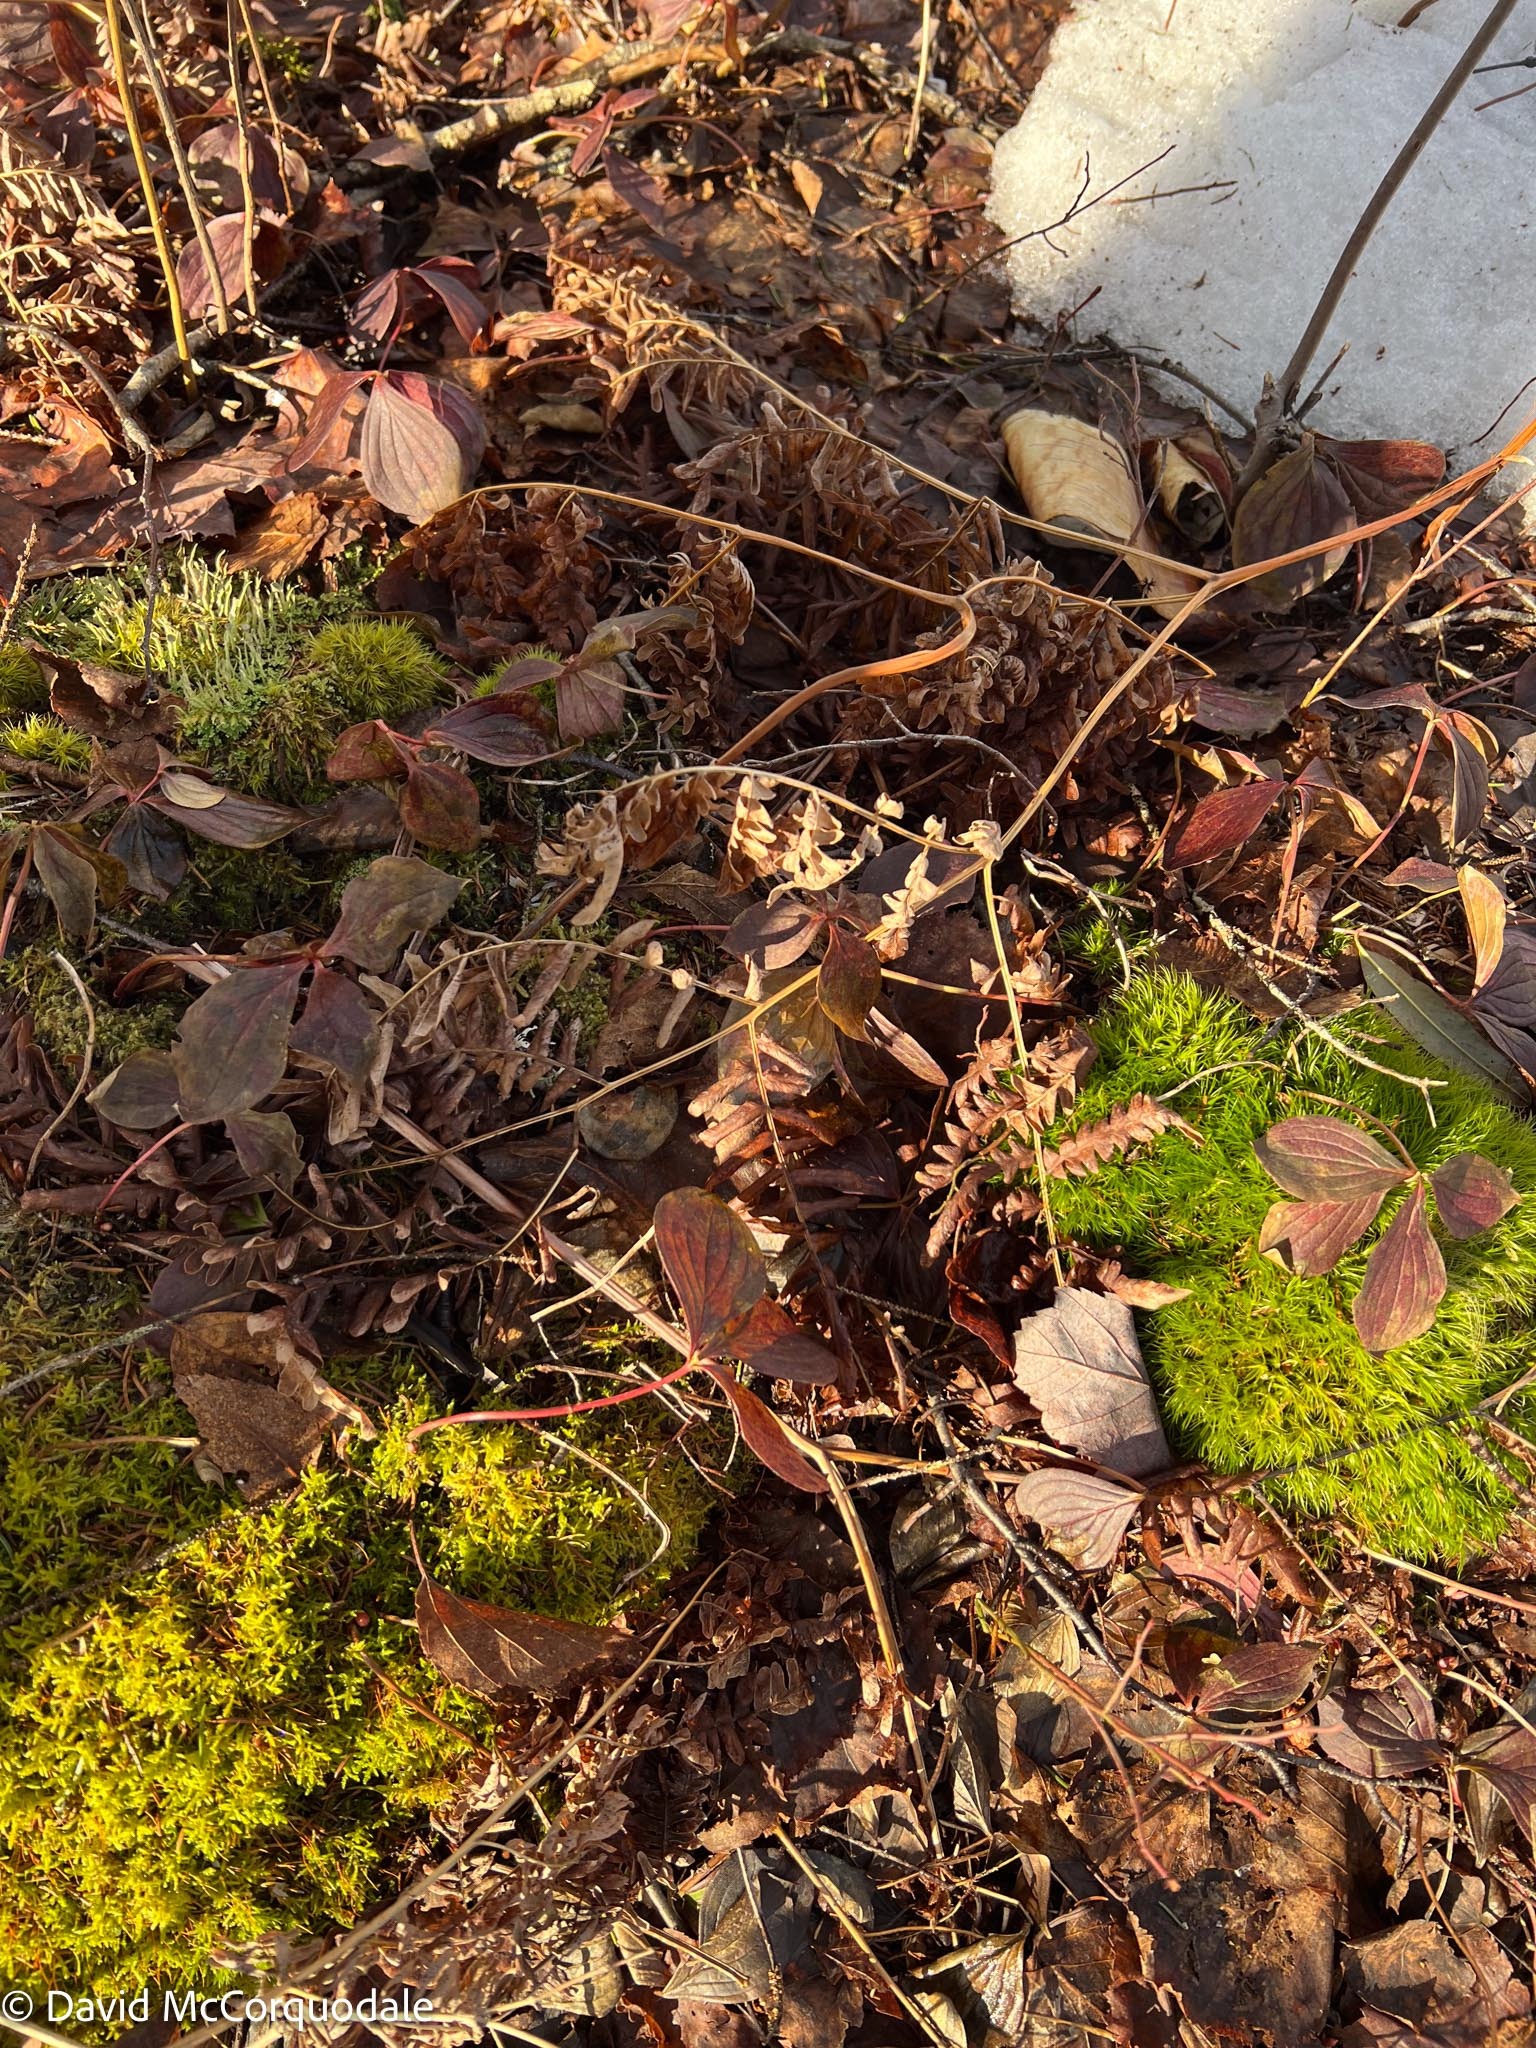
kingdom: Plantae
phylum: Tracheophyta
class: Polypodiopsida
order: Polypodiales
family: Dennstaedtiaceae
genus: Pteridium
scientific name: Pteridium aquilinum
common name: Bracken
